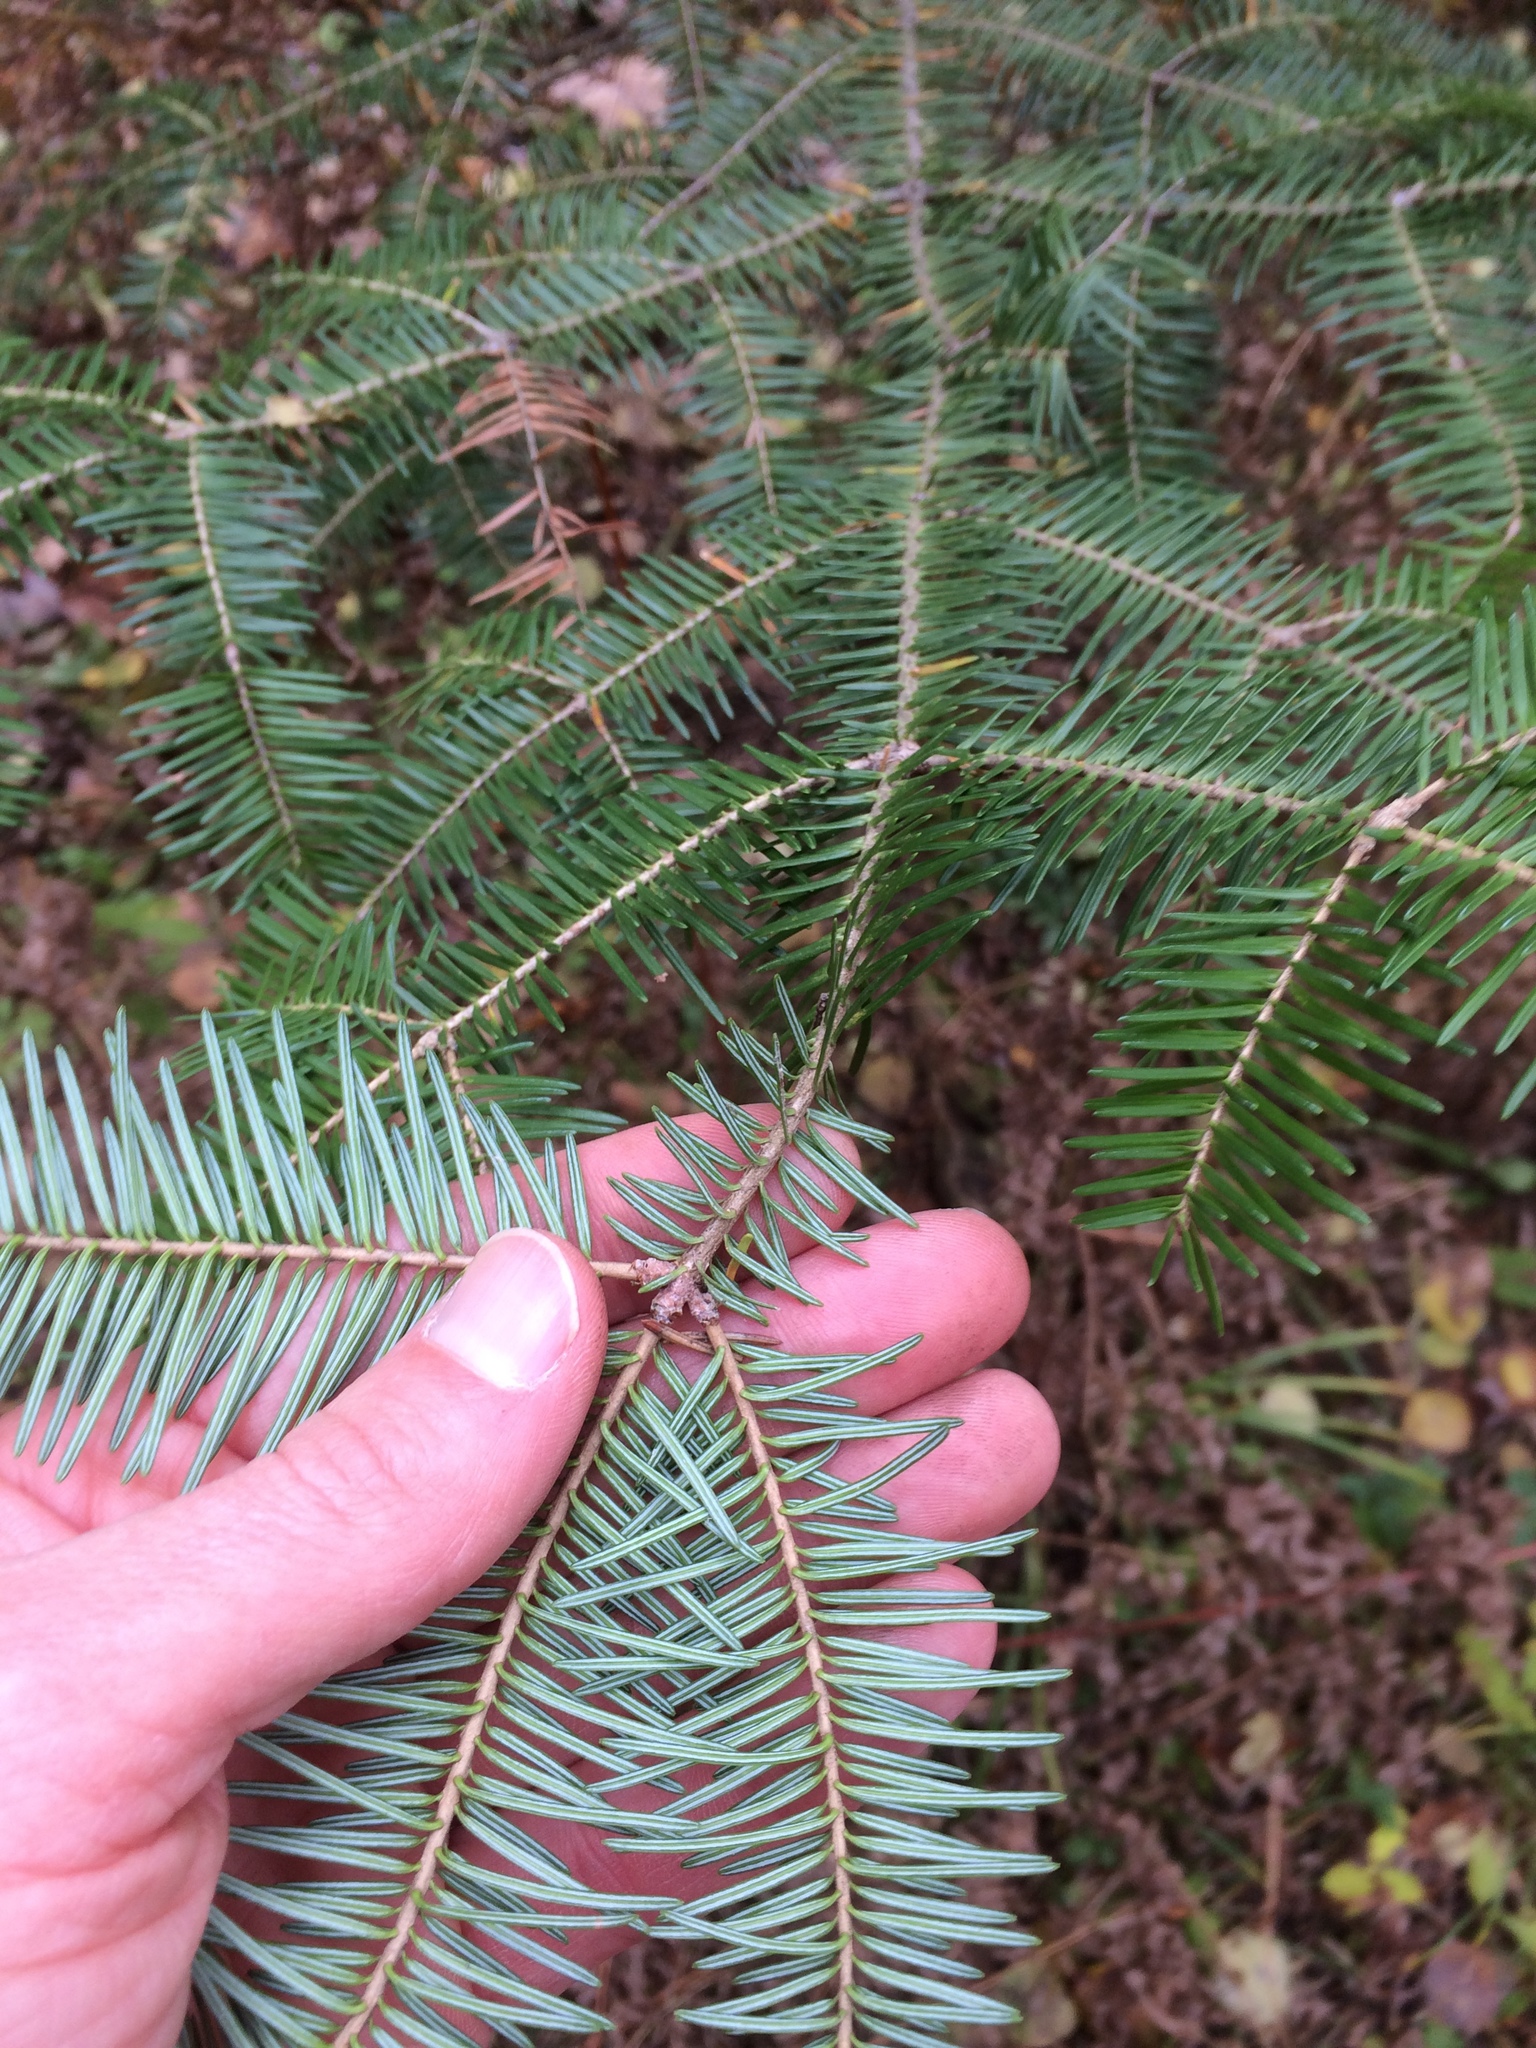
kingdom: Plantae
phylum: Tracheophyta
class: Pinopsida
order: Pinales
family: Pinaceae
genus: Abies
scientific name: Abies balsamea
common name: Balsam fir
